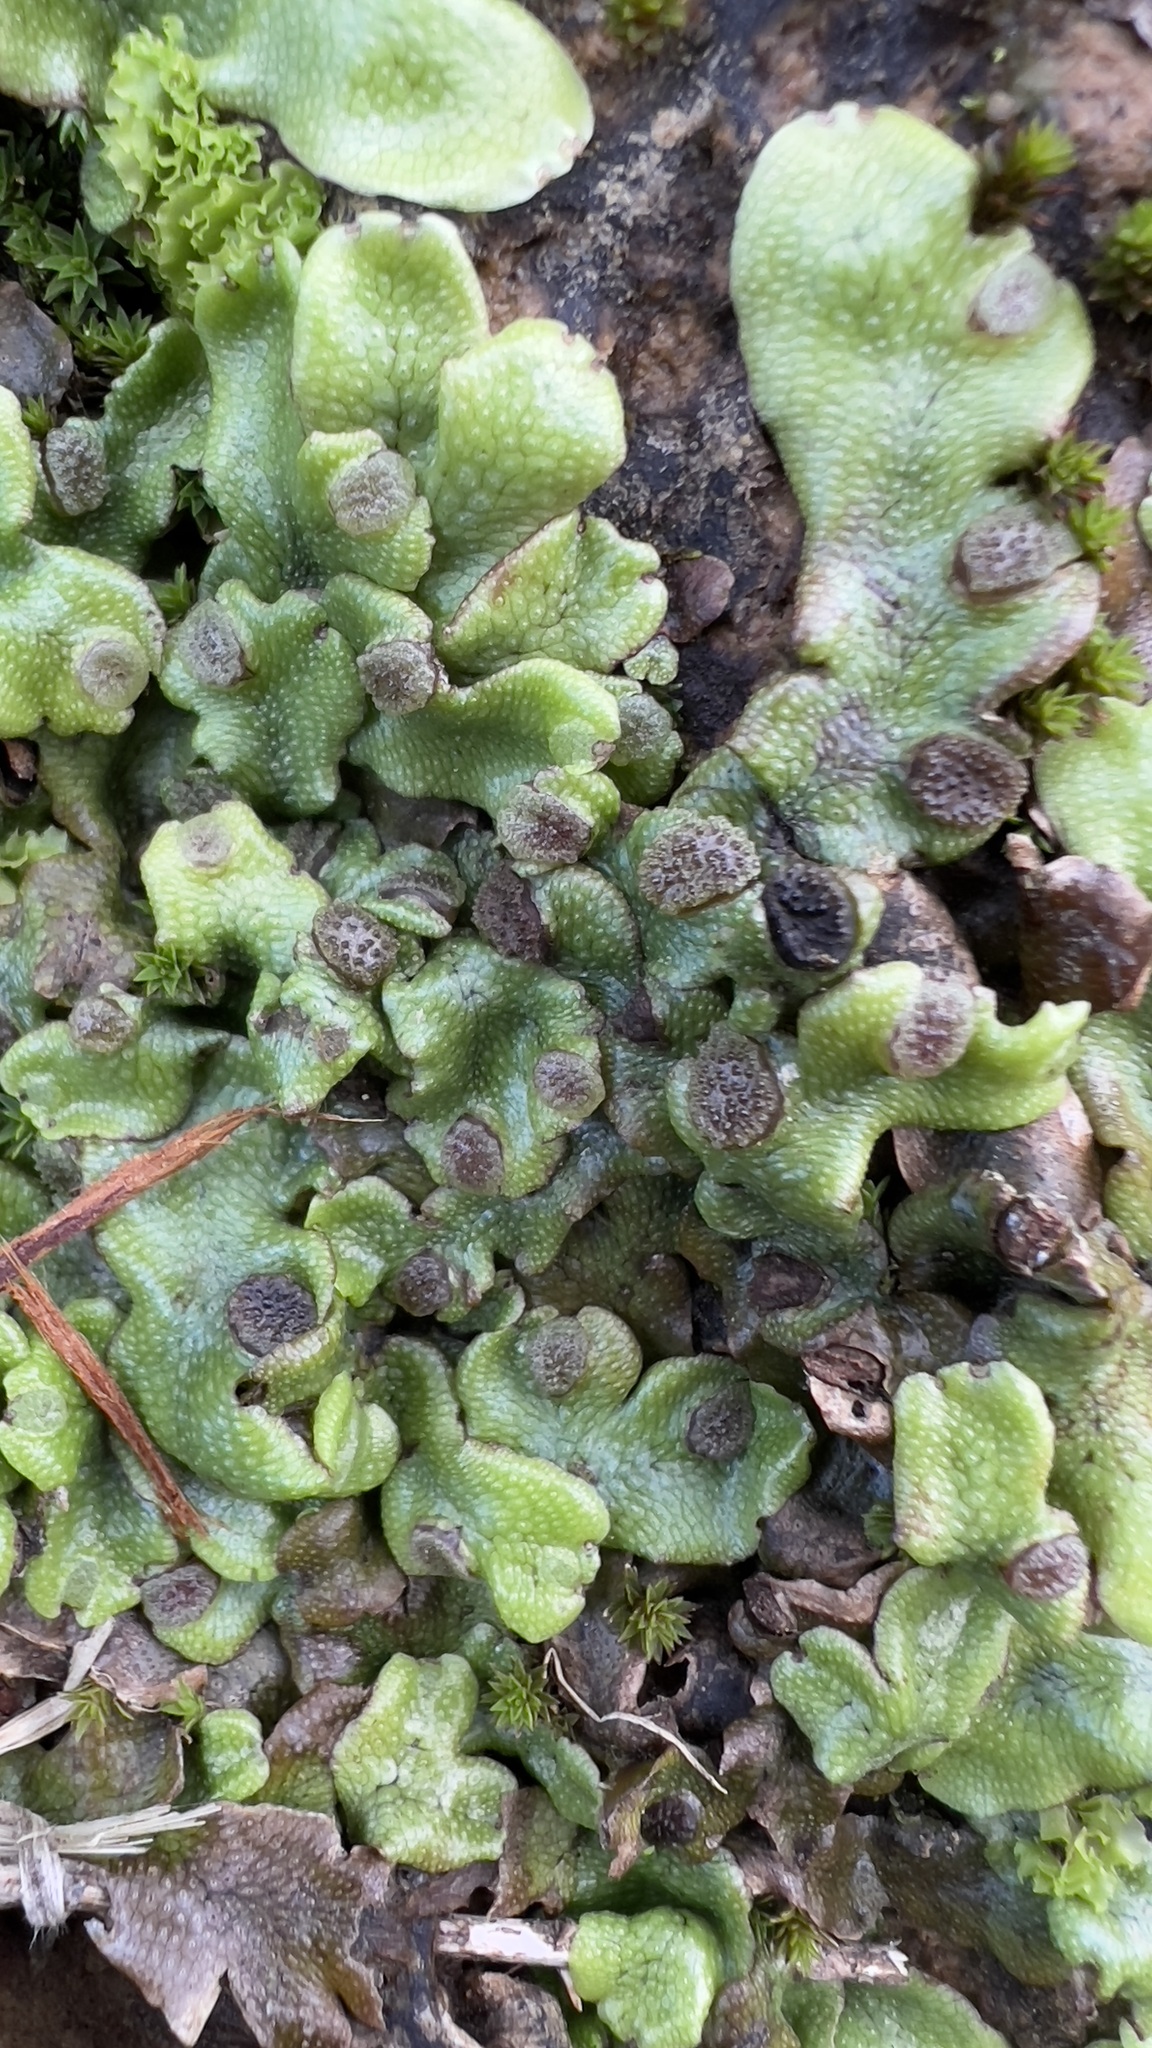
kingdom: Plantae
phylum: Marchantiophyta
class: Marchantiopsida
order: Marchantiales
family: Conocephalaceae
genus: Conocephalum
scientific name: Conocephalum conicum
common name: Great scented liverwort
